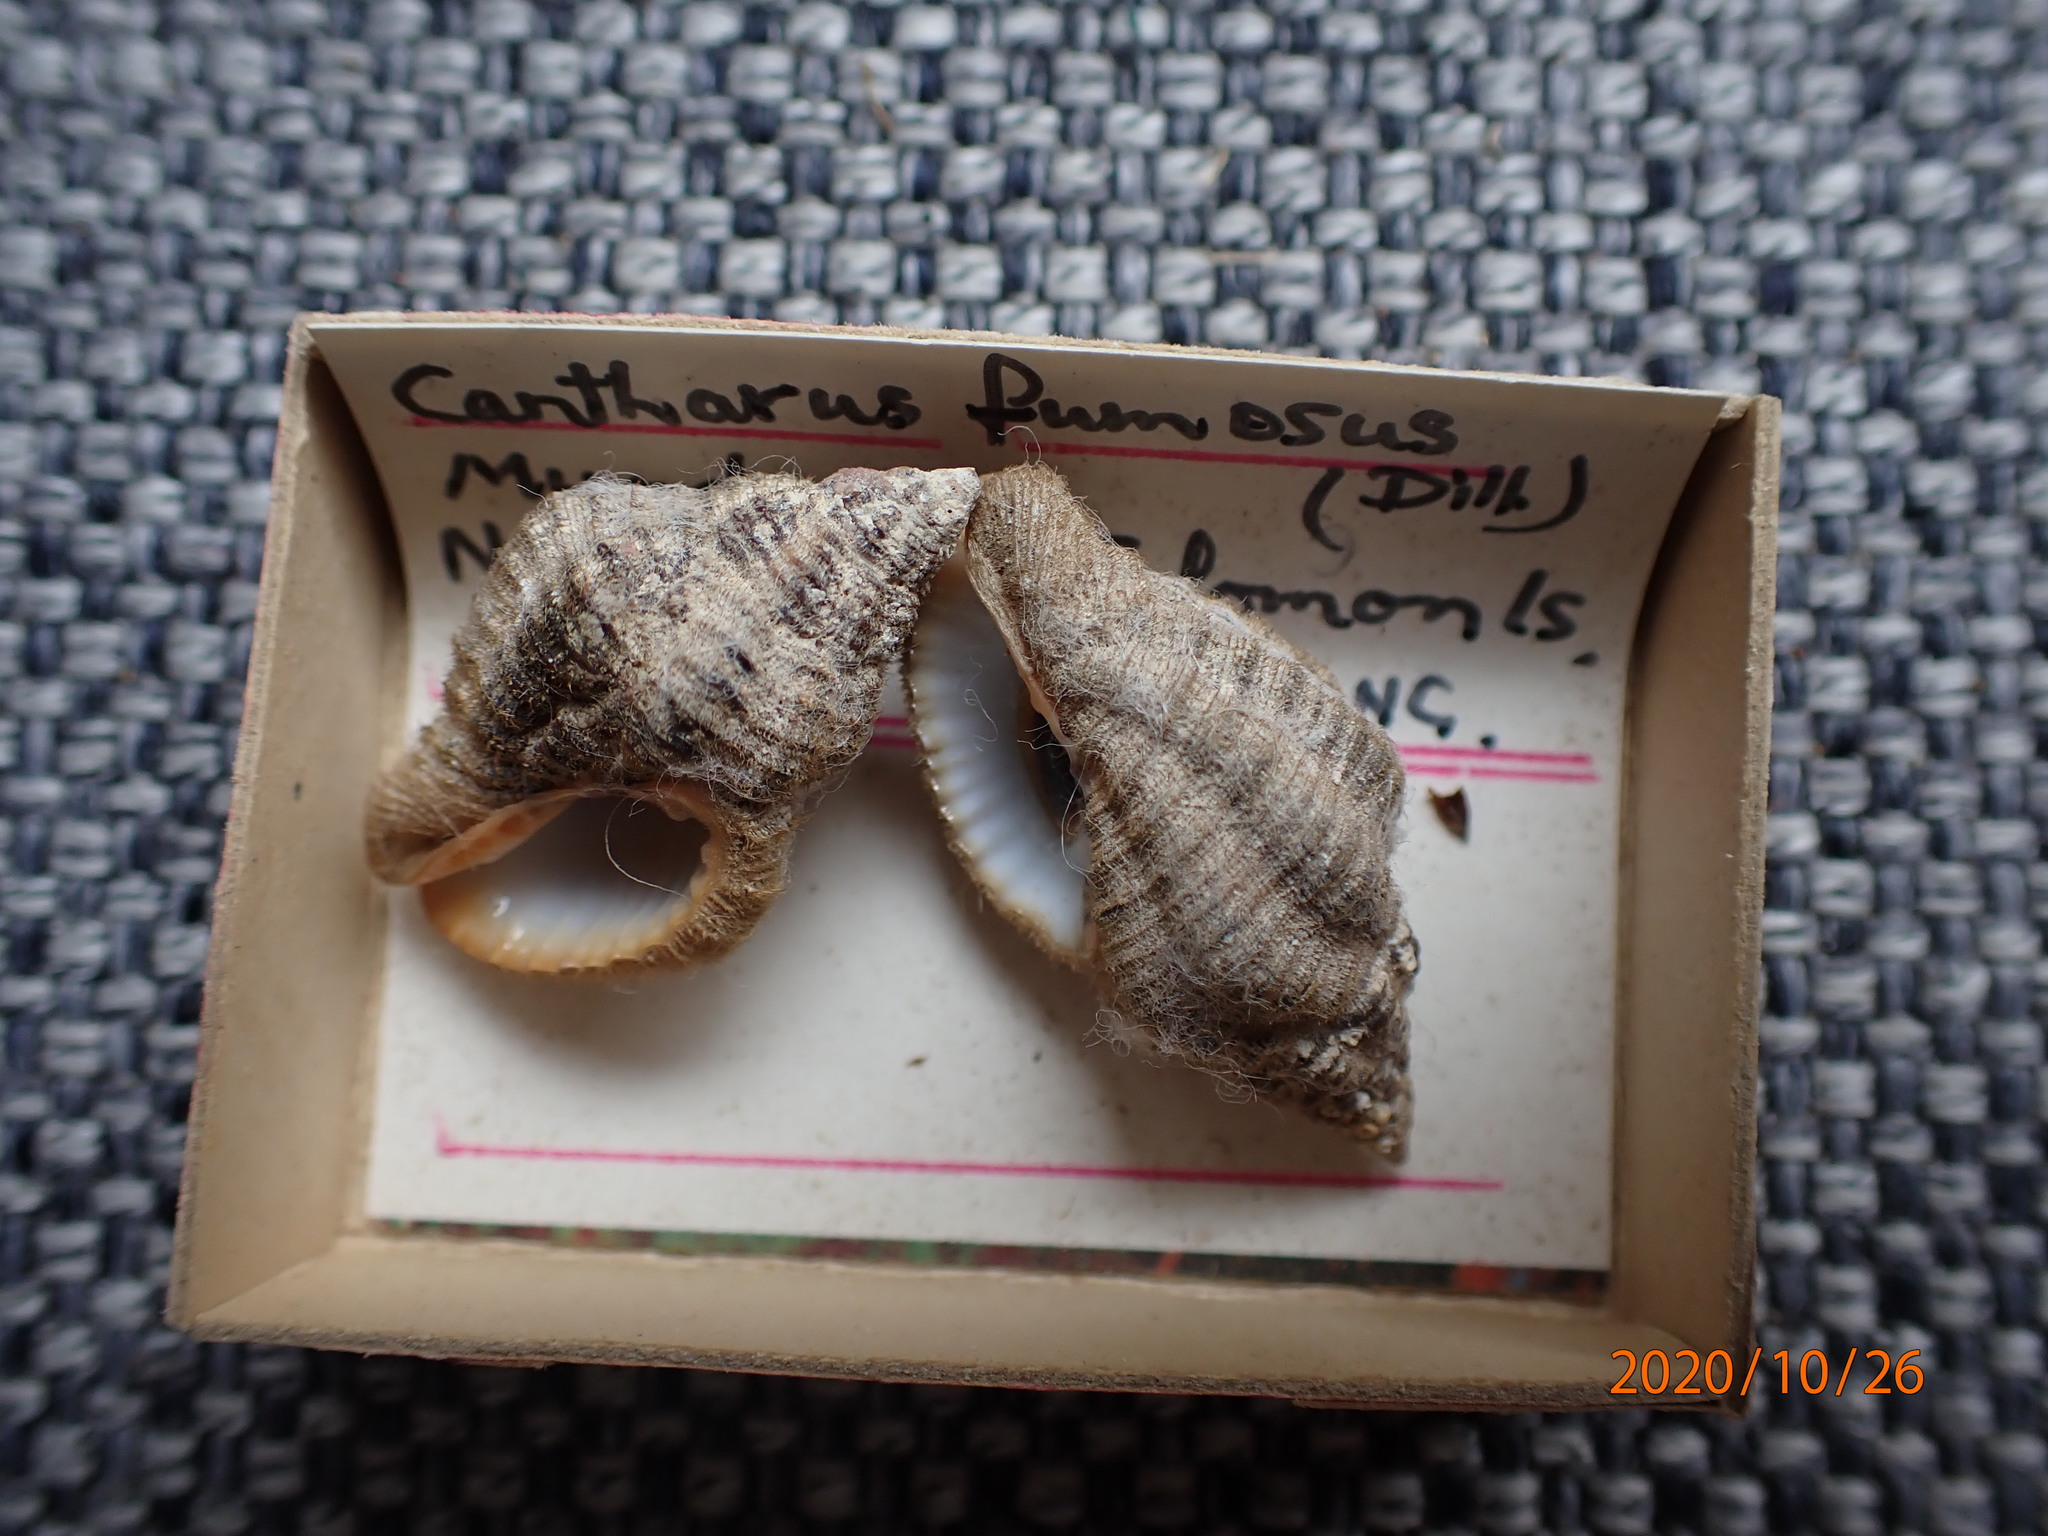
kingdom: Animalia
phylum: Mollusca
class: Gastropoda
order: Neogastropoda
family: Pisaniidae
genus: Pollia
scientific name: Pollia fumosa
